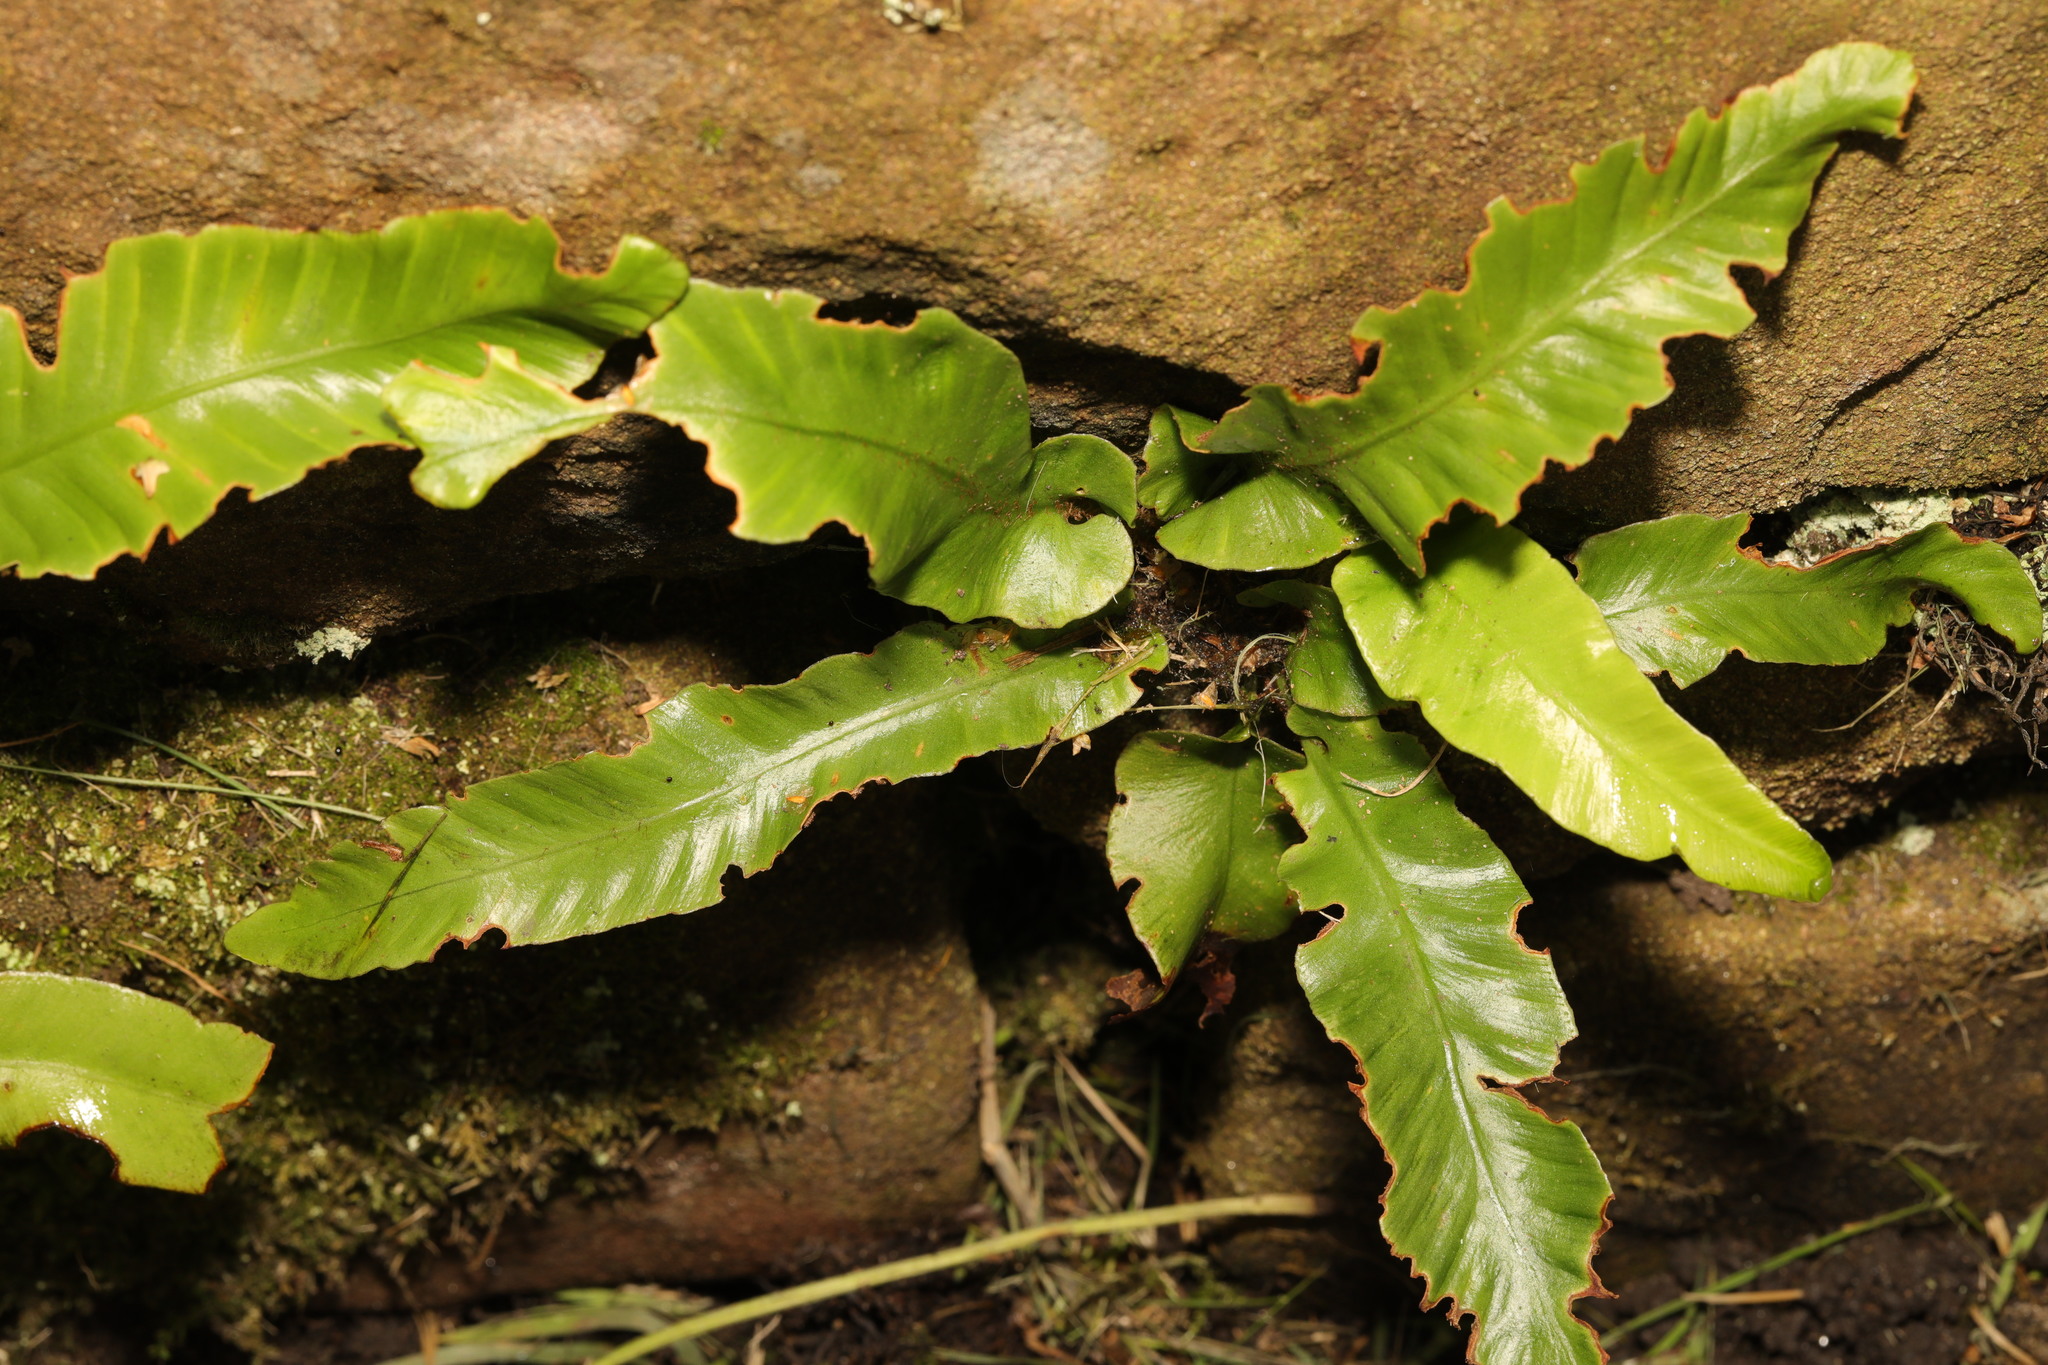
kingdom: Plantae
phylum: Tracheophyta
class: Polypodiopsida
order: Polypodiales
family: Aspleniaceae
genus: Asplenium
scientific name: Asplenium scolopendrium
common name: Hart's-tongue fern
